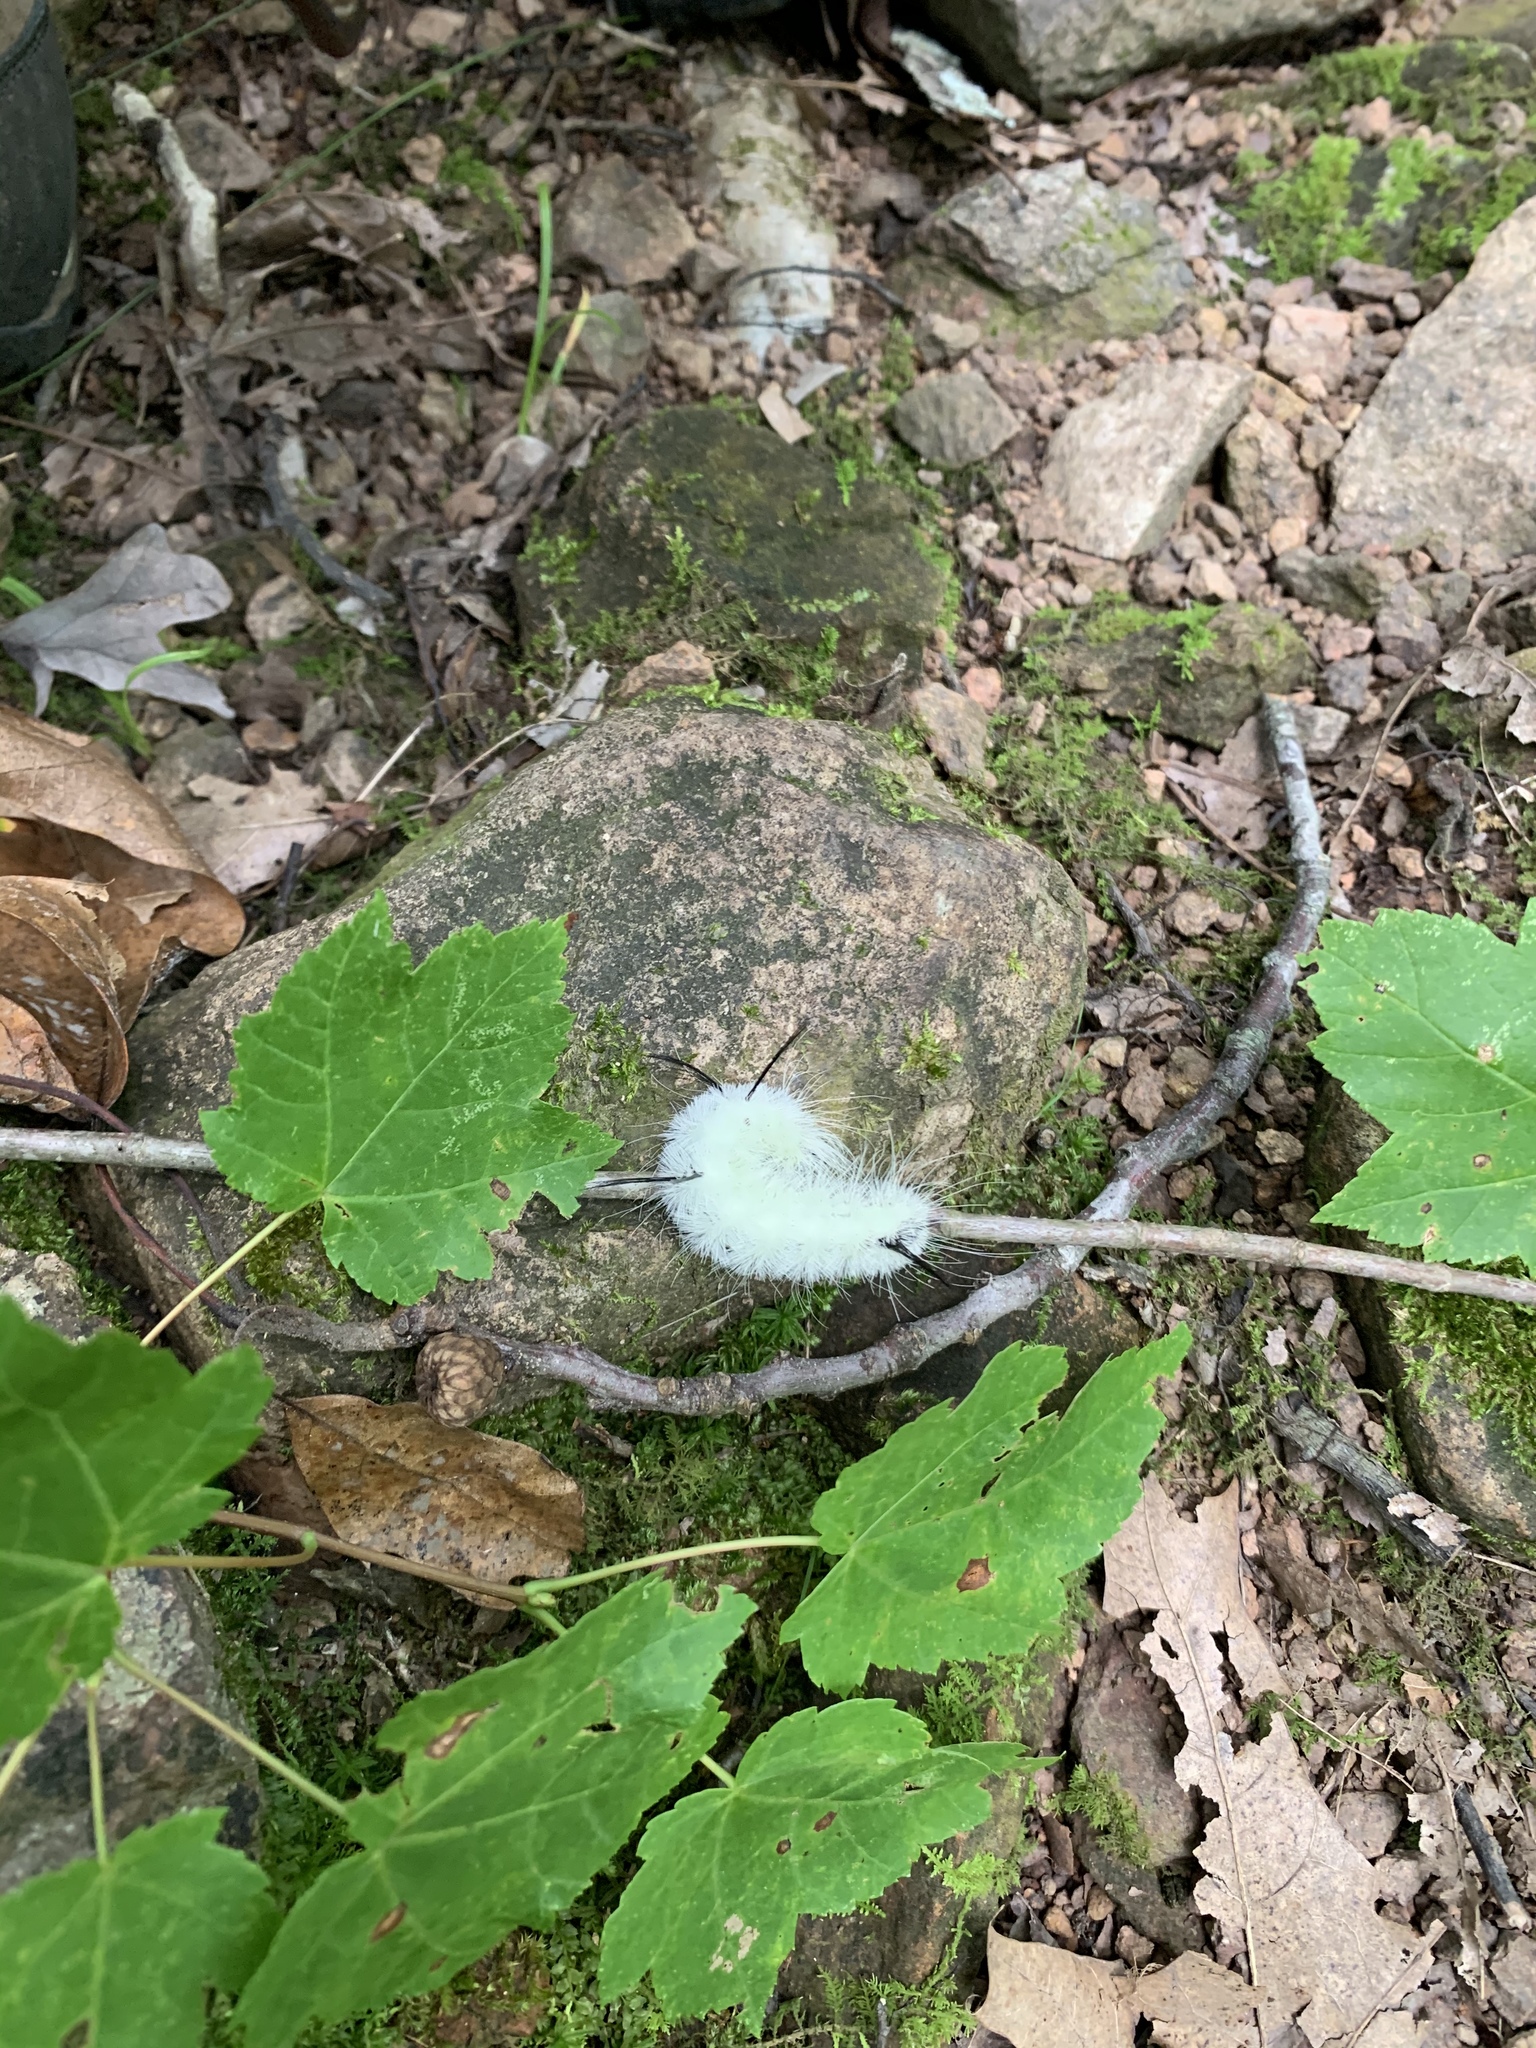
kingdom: Animalia
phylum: Arthropoda
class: Insecta
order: Lepidoptera
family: Noctuidae
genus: Acronicta
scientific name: Acronicta americana
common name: American dagger
